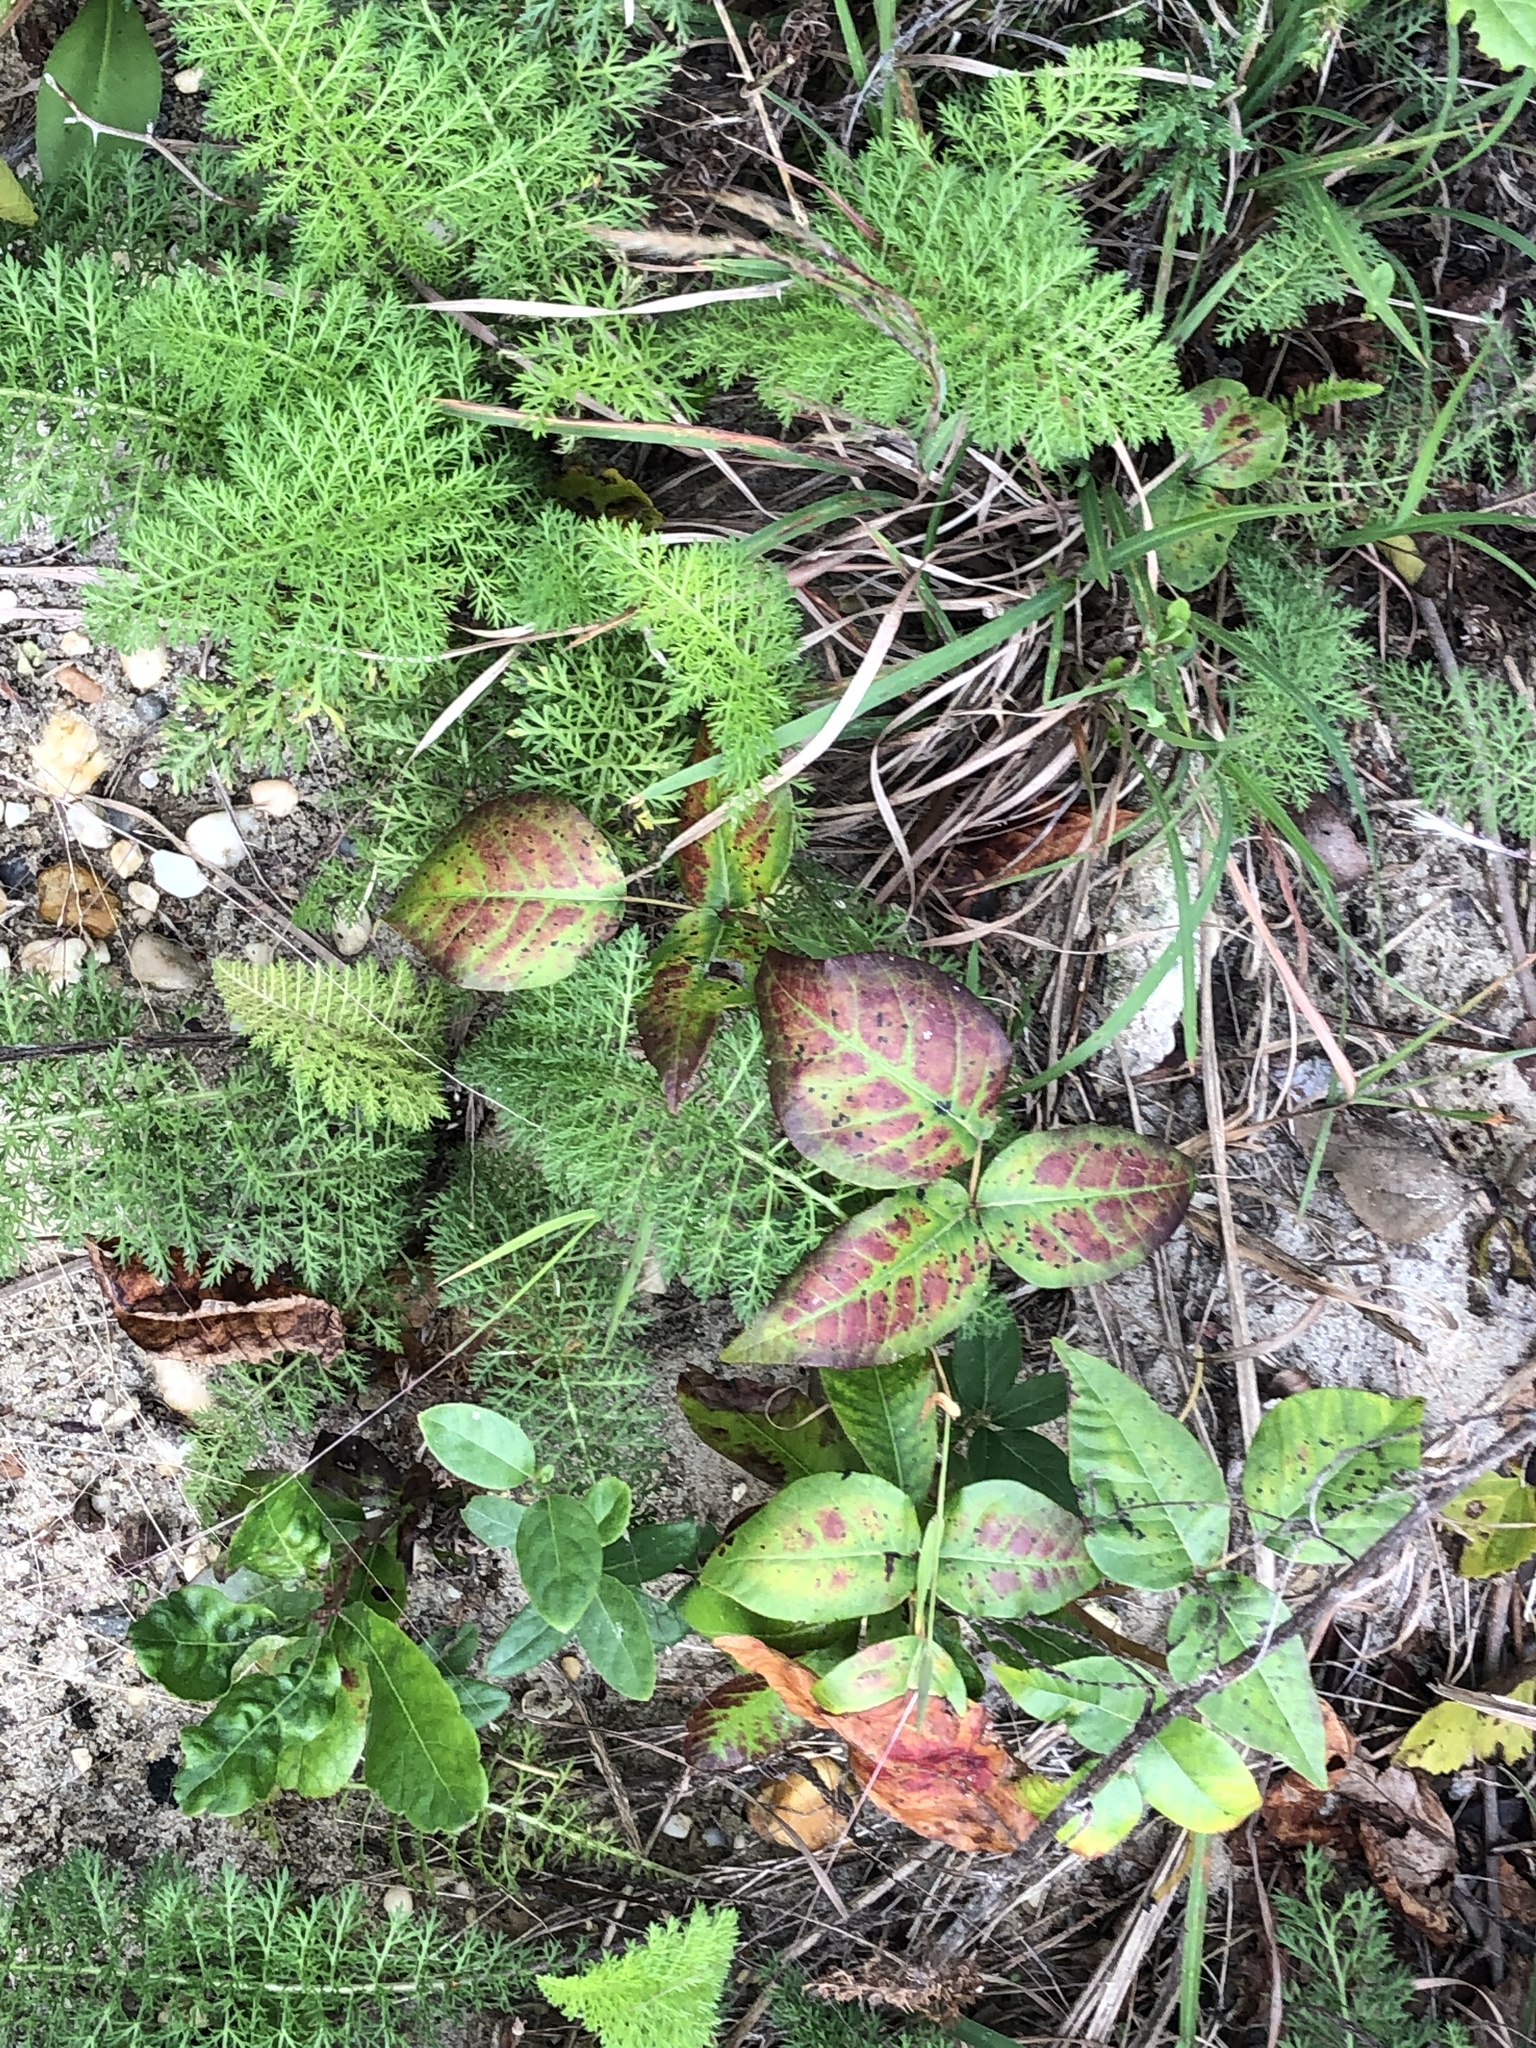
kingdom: Plantae
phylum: Tracheophyta
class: Magnoliopsida
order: Sapindales
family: Anacardiaceae
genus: Toxicodendron
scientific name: Toxicodendron radicans
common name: Poison ivy
